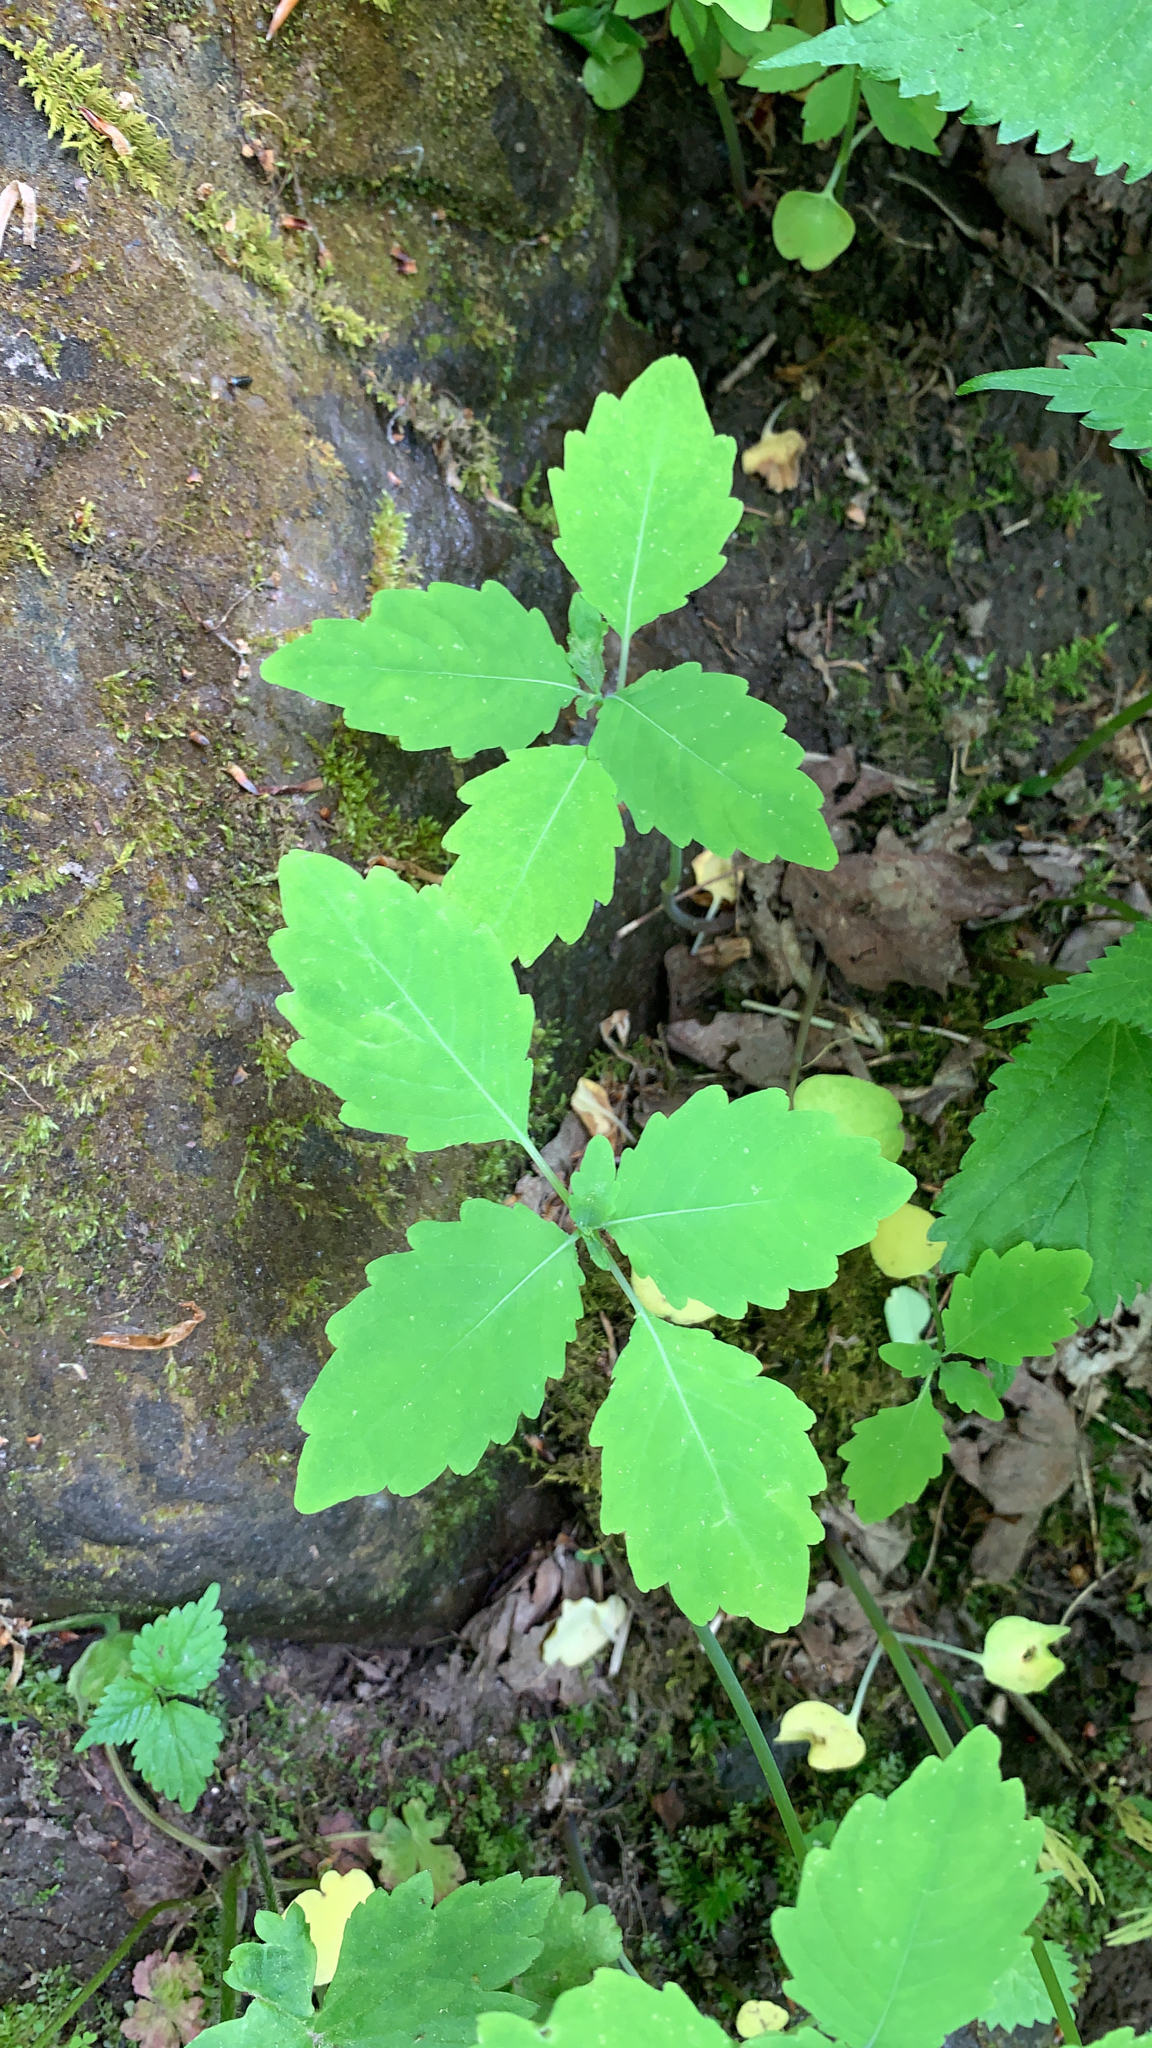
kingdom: Plantae
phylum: Tracheophyta
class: Magnoliopsida
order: Ericales
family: Balsaminaceae
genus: Impatiens
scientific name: Impatiens
